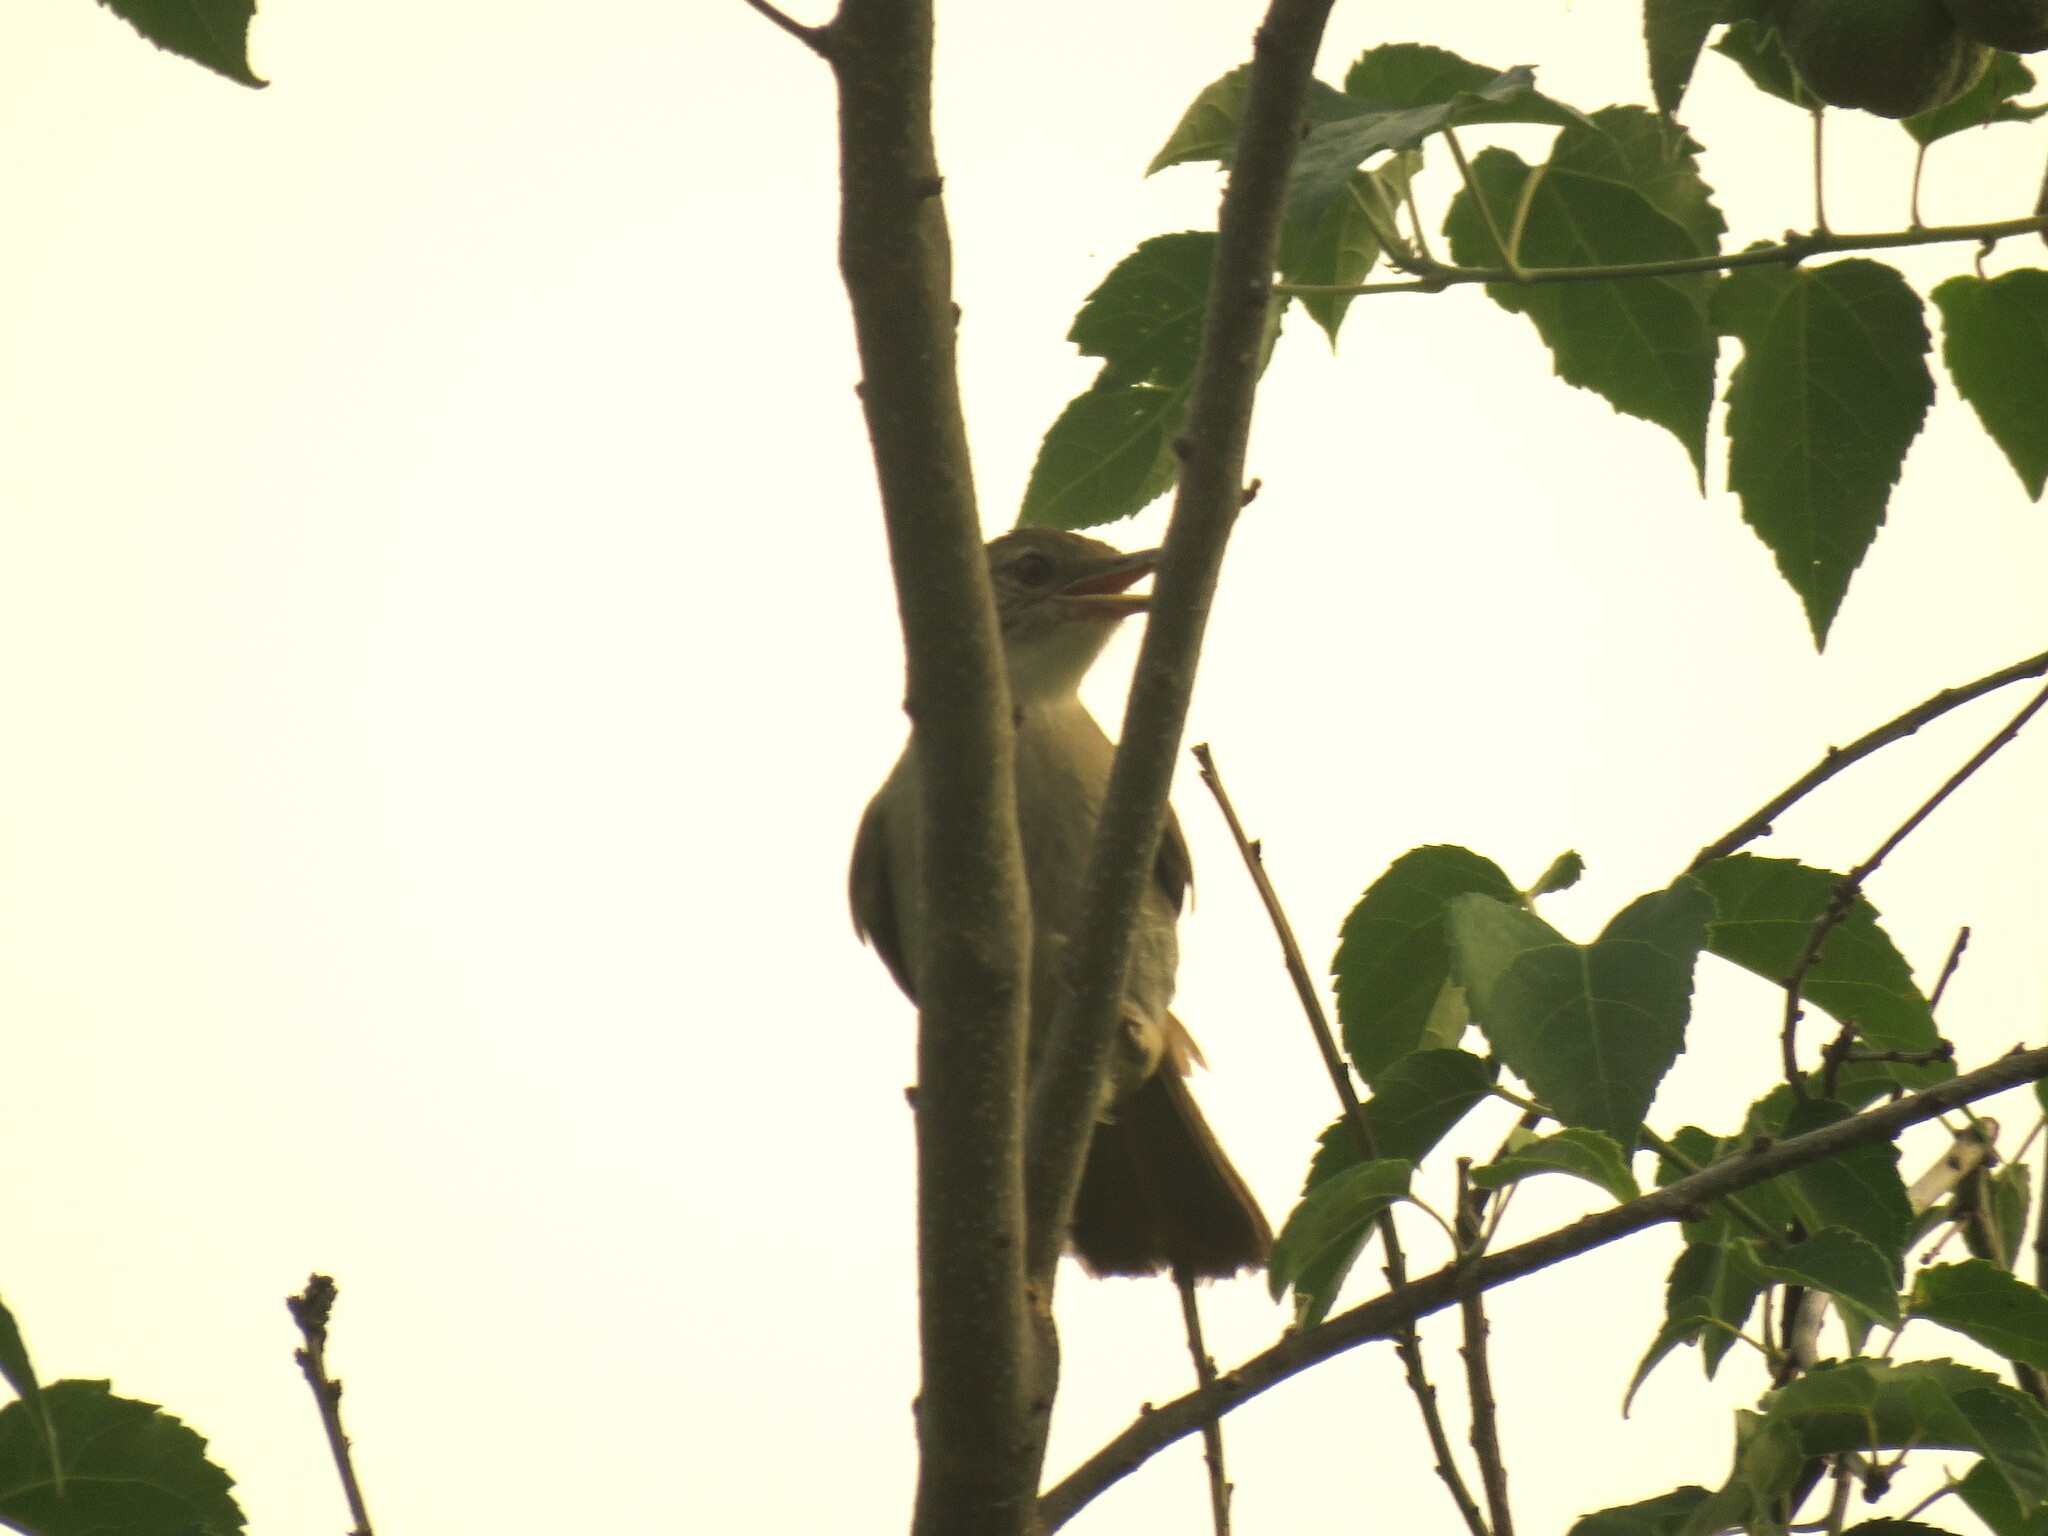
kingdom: Animalia
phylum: Chordata
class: Aves
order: Passeriformes
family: Pycnonotidae
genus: Phyllastrephus
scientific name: Phyllastrephus terrestris
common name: Terrestrial brownbul
